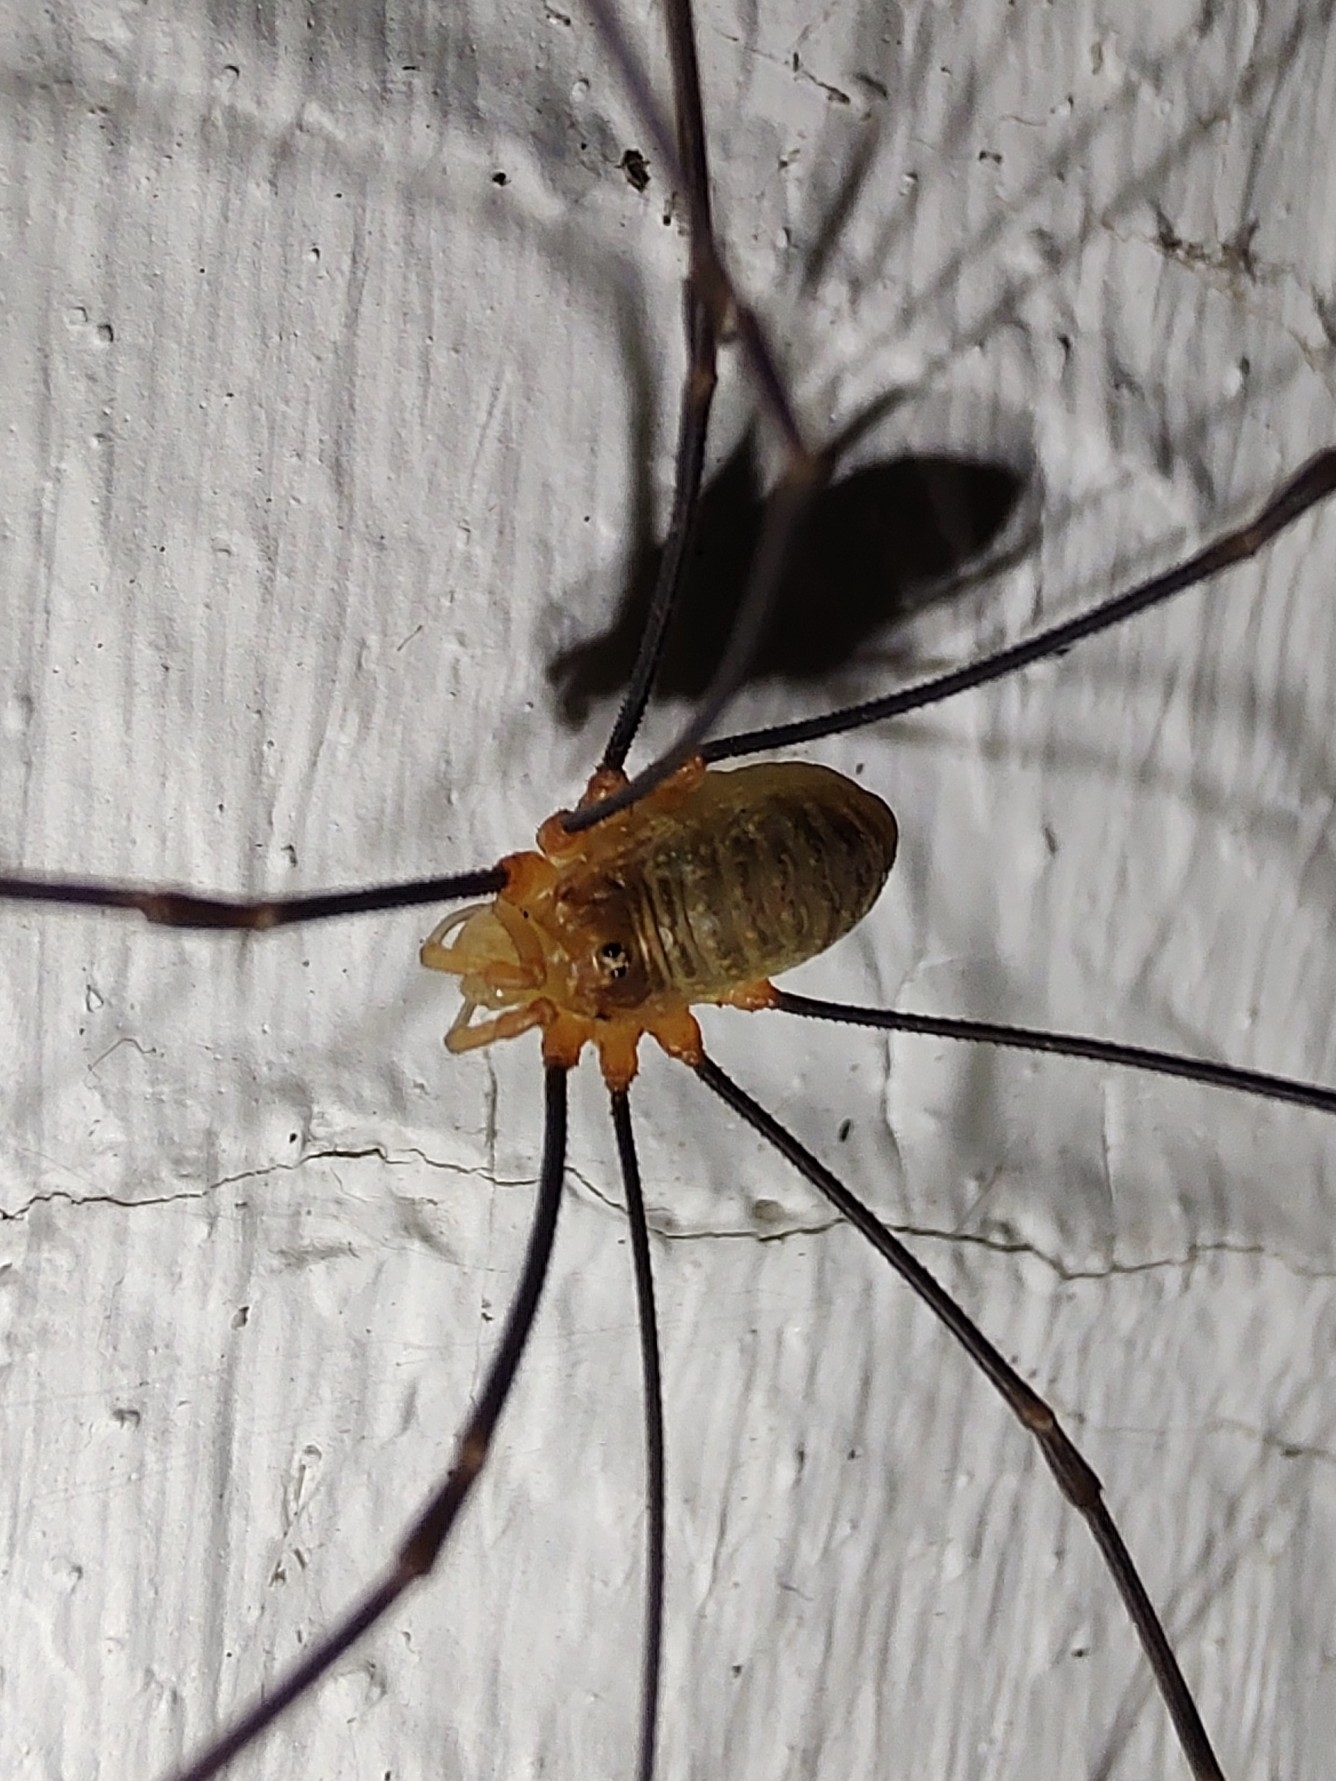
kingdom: Animalia
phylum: Arthropoda
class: Arachnida
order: Opiliones
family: Phalangiidae
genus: Opilio
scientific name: Opilio canestrinii
